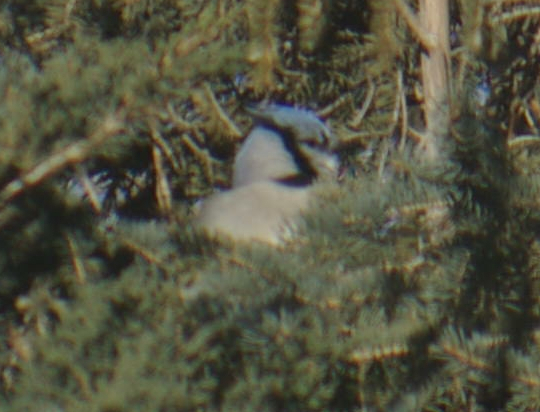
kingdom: Animalia
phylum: Chordata
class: Aves
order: Passeriformes
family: Corvidae
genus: Cyanocitta
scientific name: Cyanocitta cristata
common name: Blue jay
